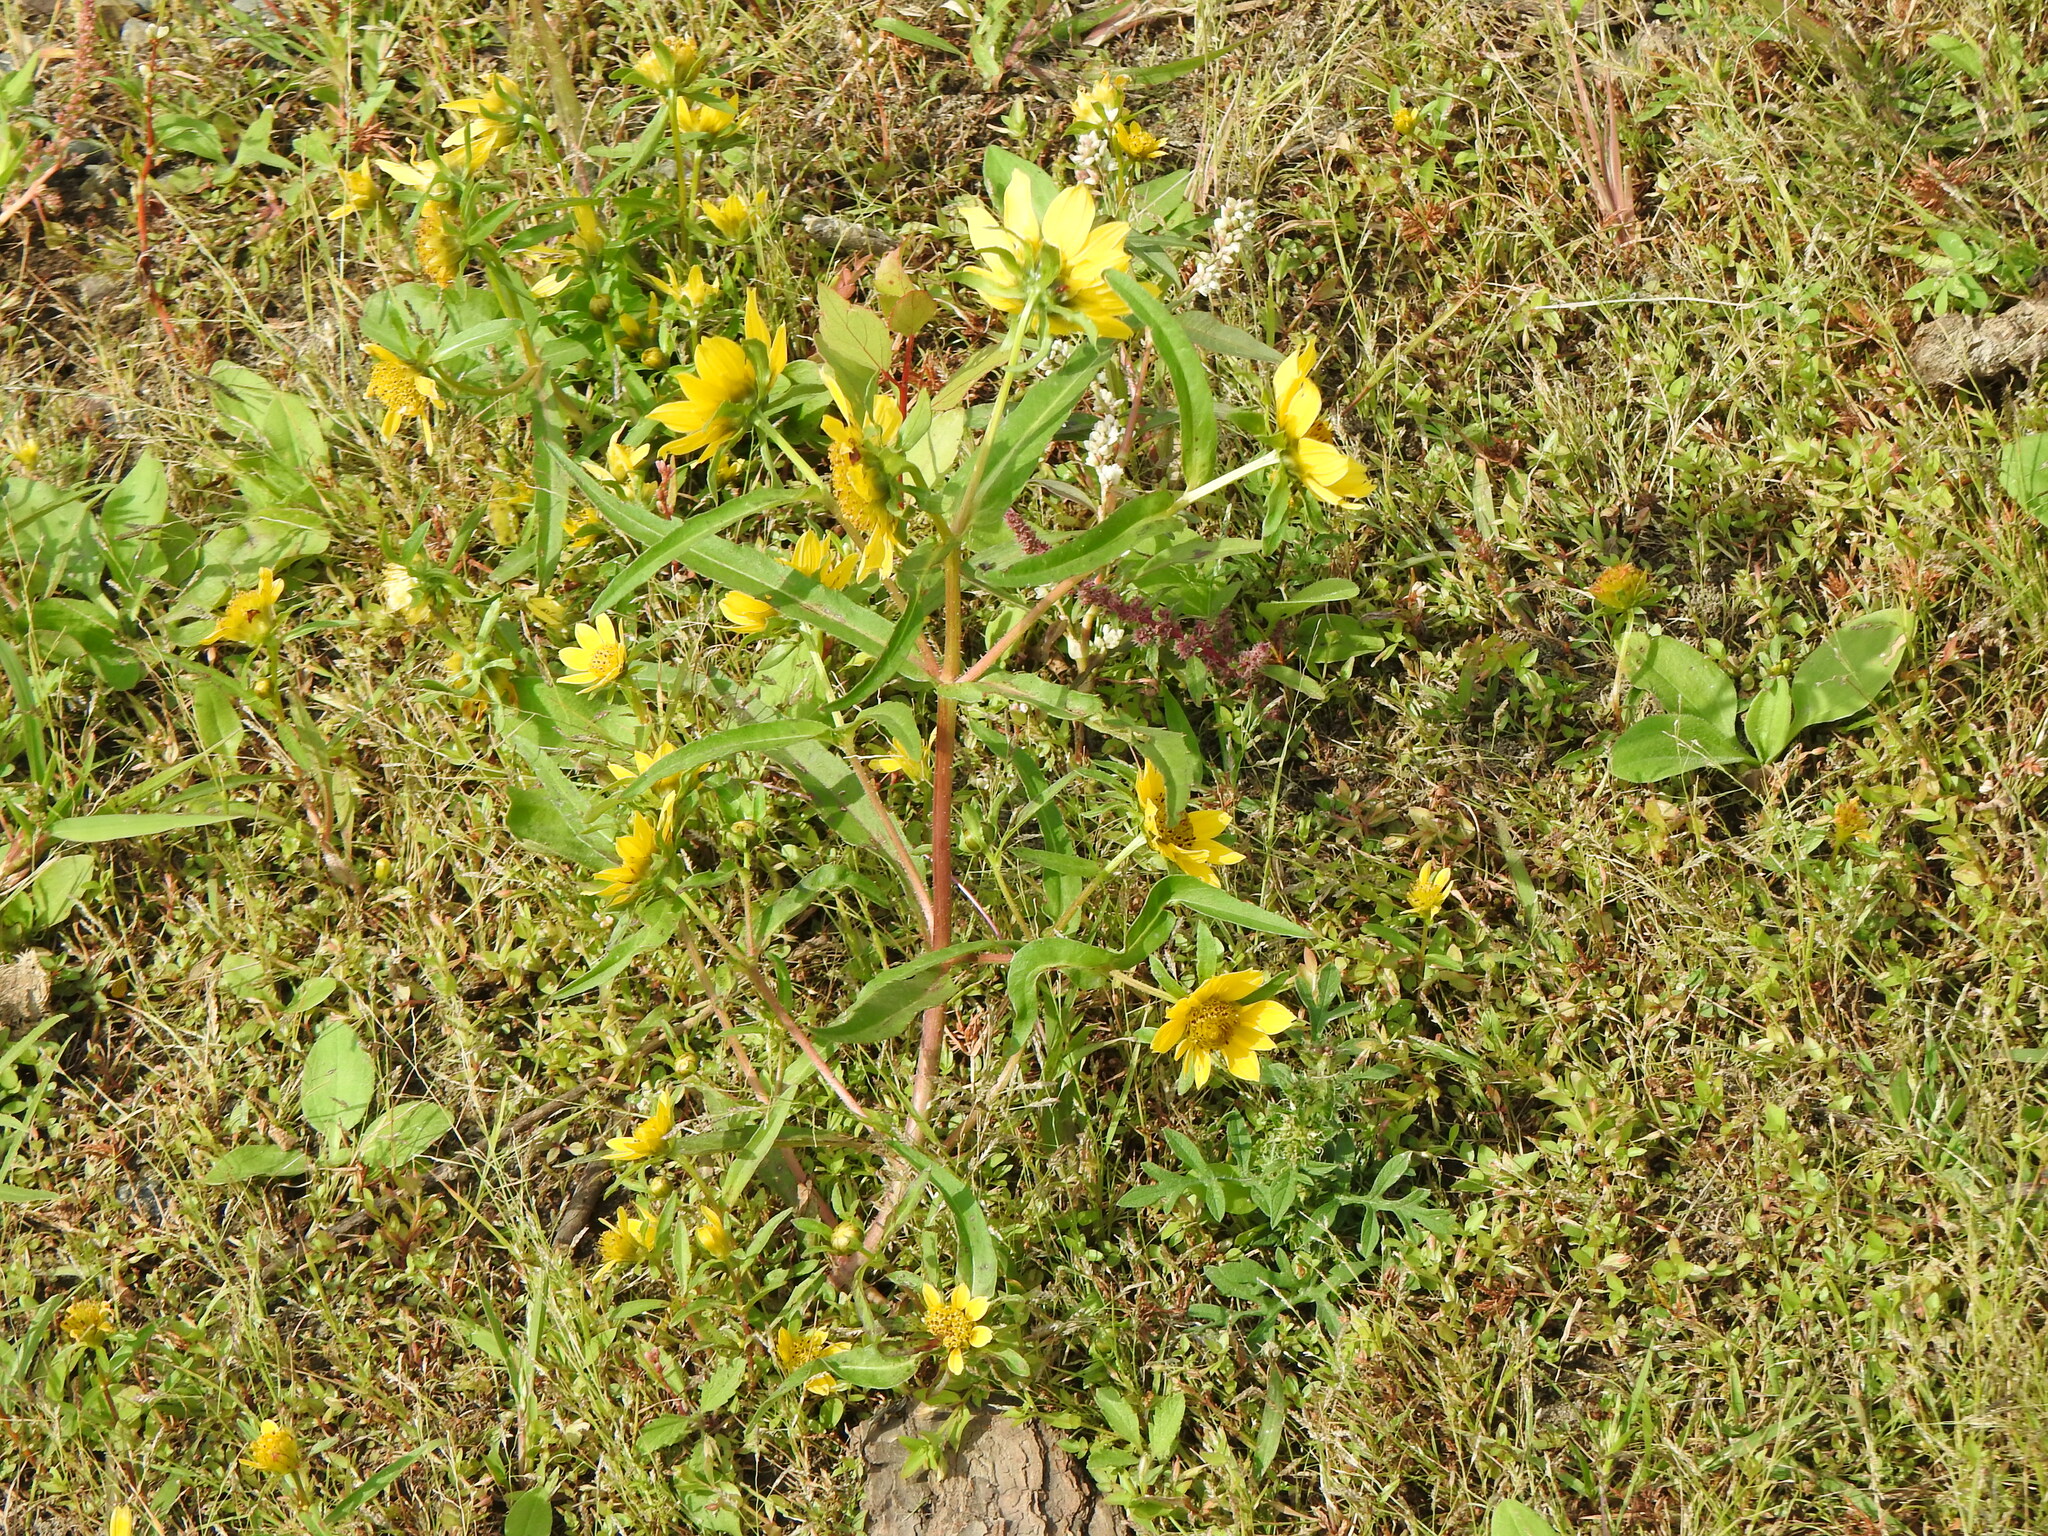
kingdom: Plantae
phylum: Tracheophyta
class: Magnoliopsida
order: Asterales
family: Asteraceae
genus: Bidens
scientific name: Bidens cernua
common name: Nodding bur-marigold
